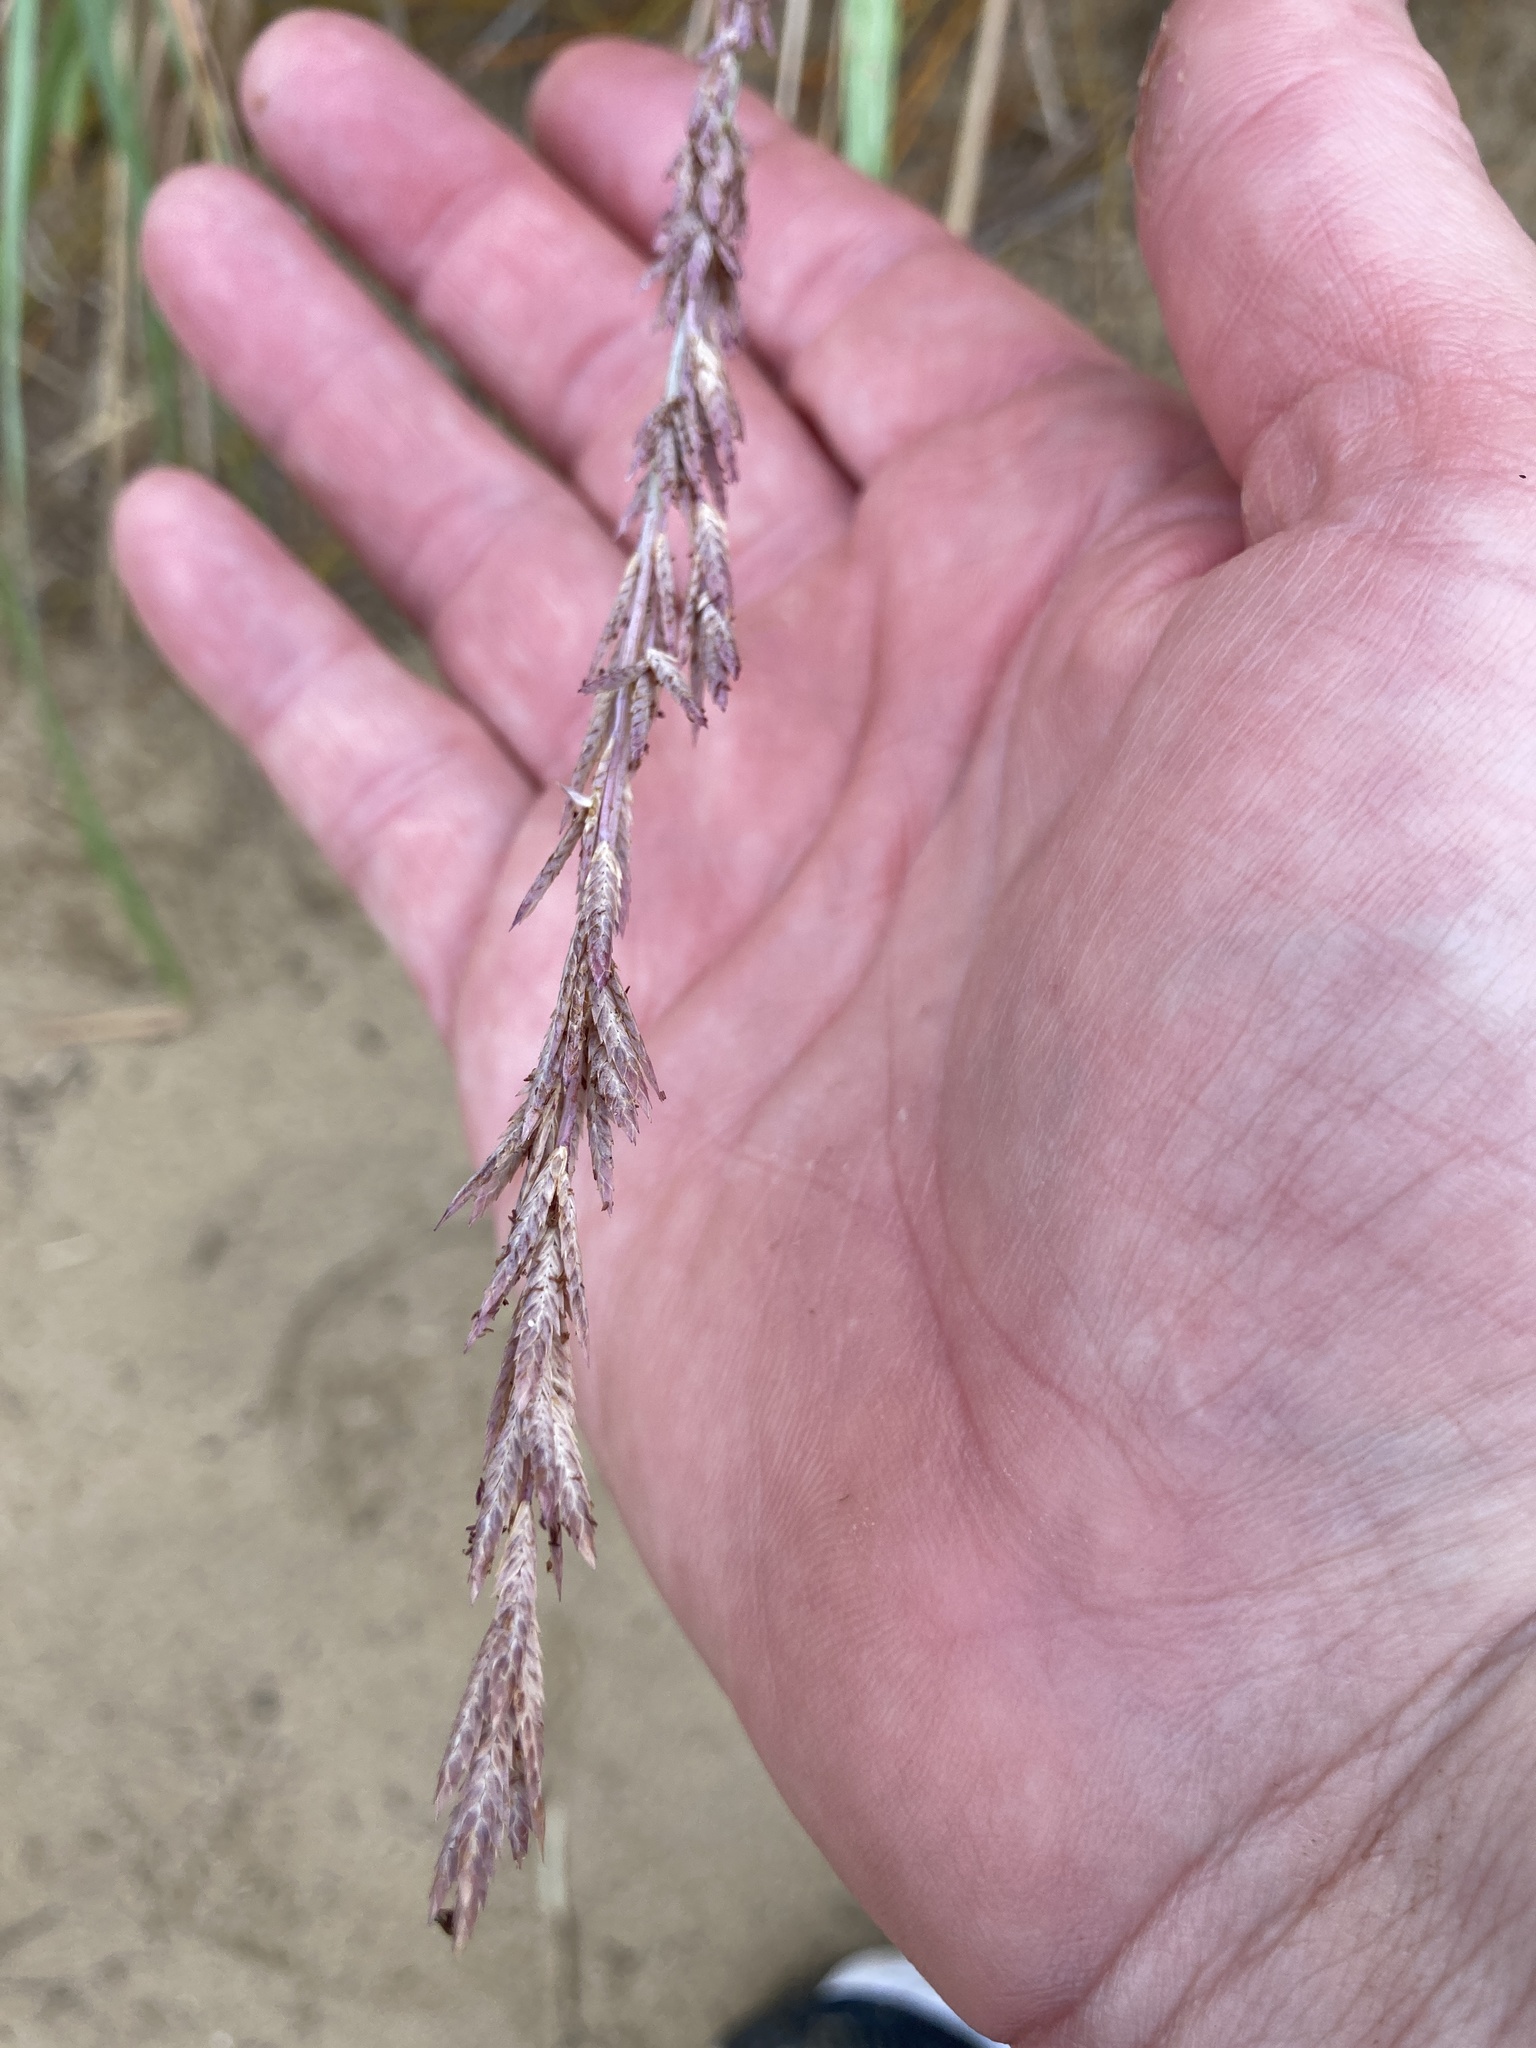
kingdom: Plantae
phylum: Tracheophyta
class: Liliopsida
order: Poales
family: Poaceae
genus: Eragrostis
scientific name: Eragrostis interrupta
